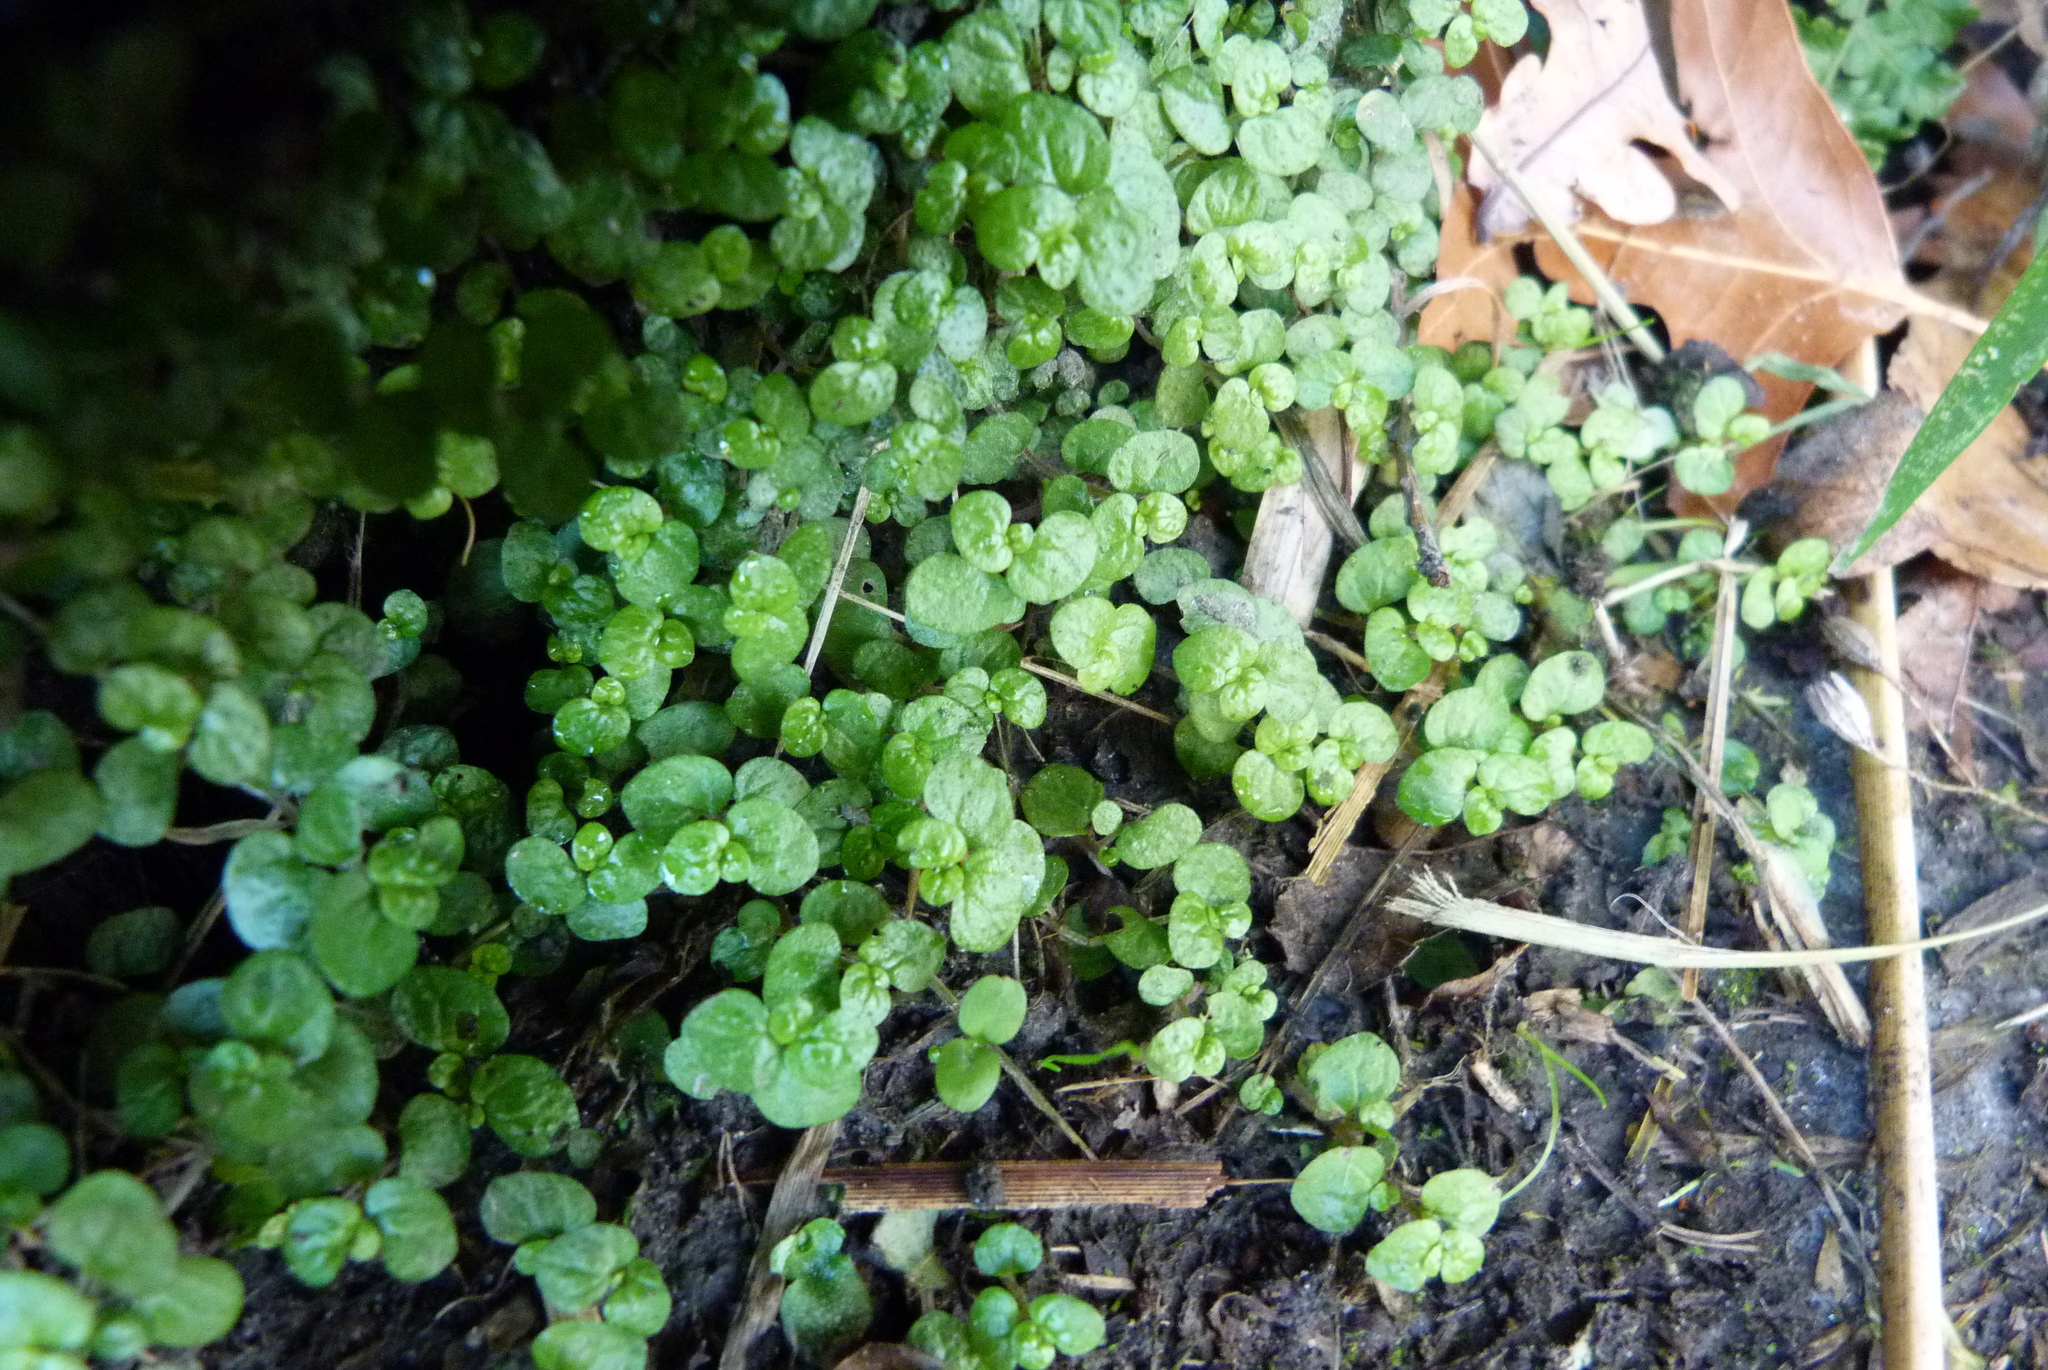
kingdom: Plantae
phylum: Tracheophyta
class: Magnoliopsida
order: Rosales
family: Urticaceae
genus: Soleirolia
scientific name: Soleirolia soleirolii
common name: Mind-your-own-business
